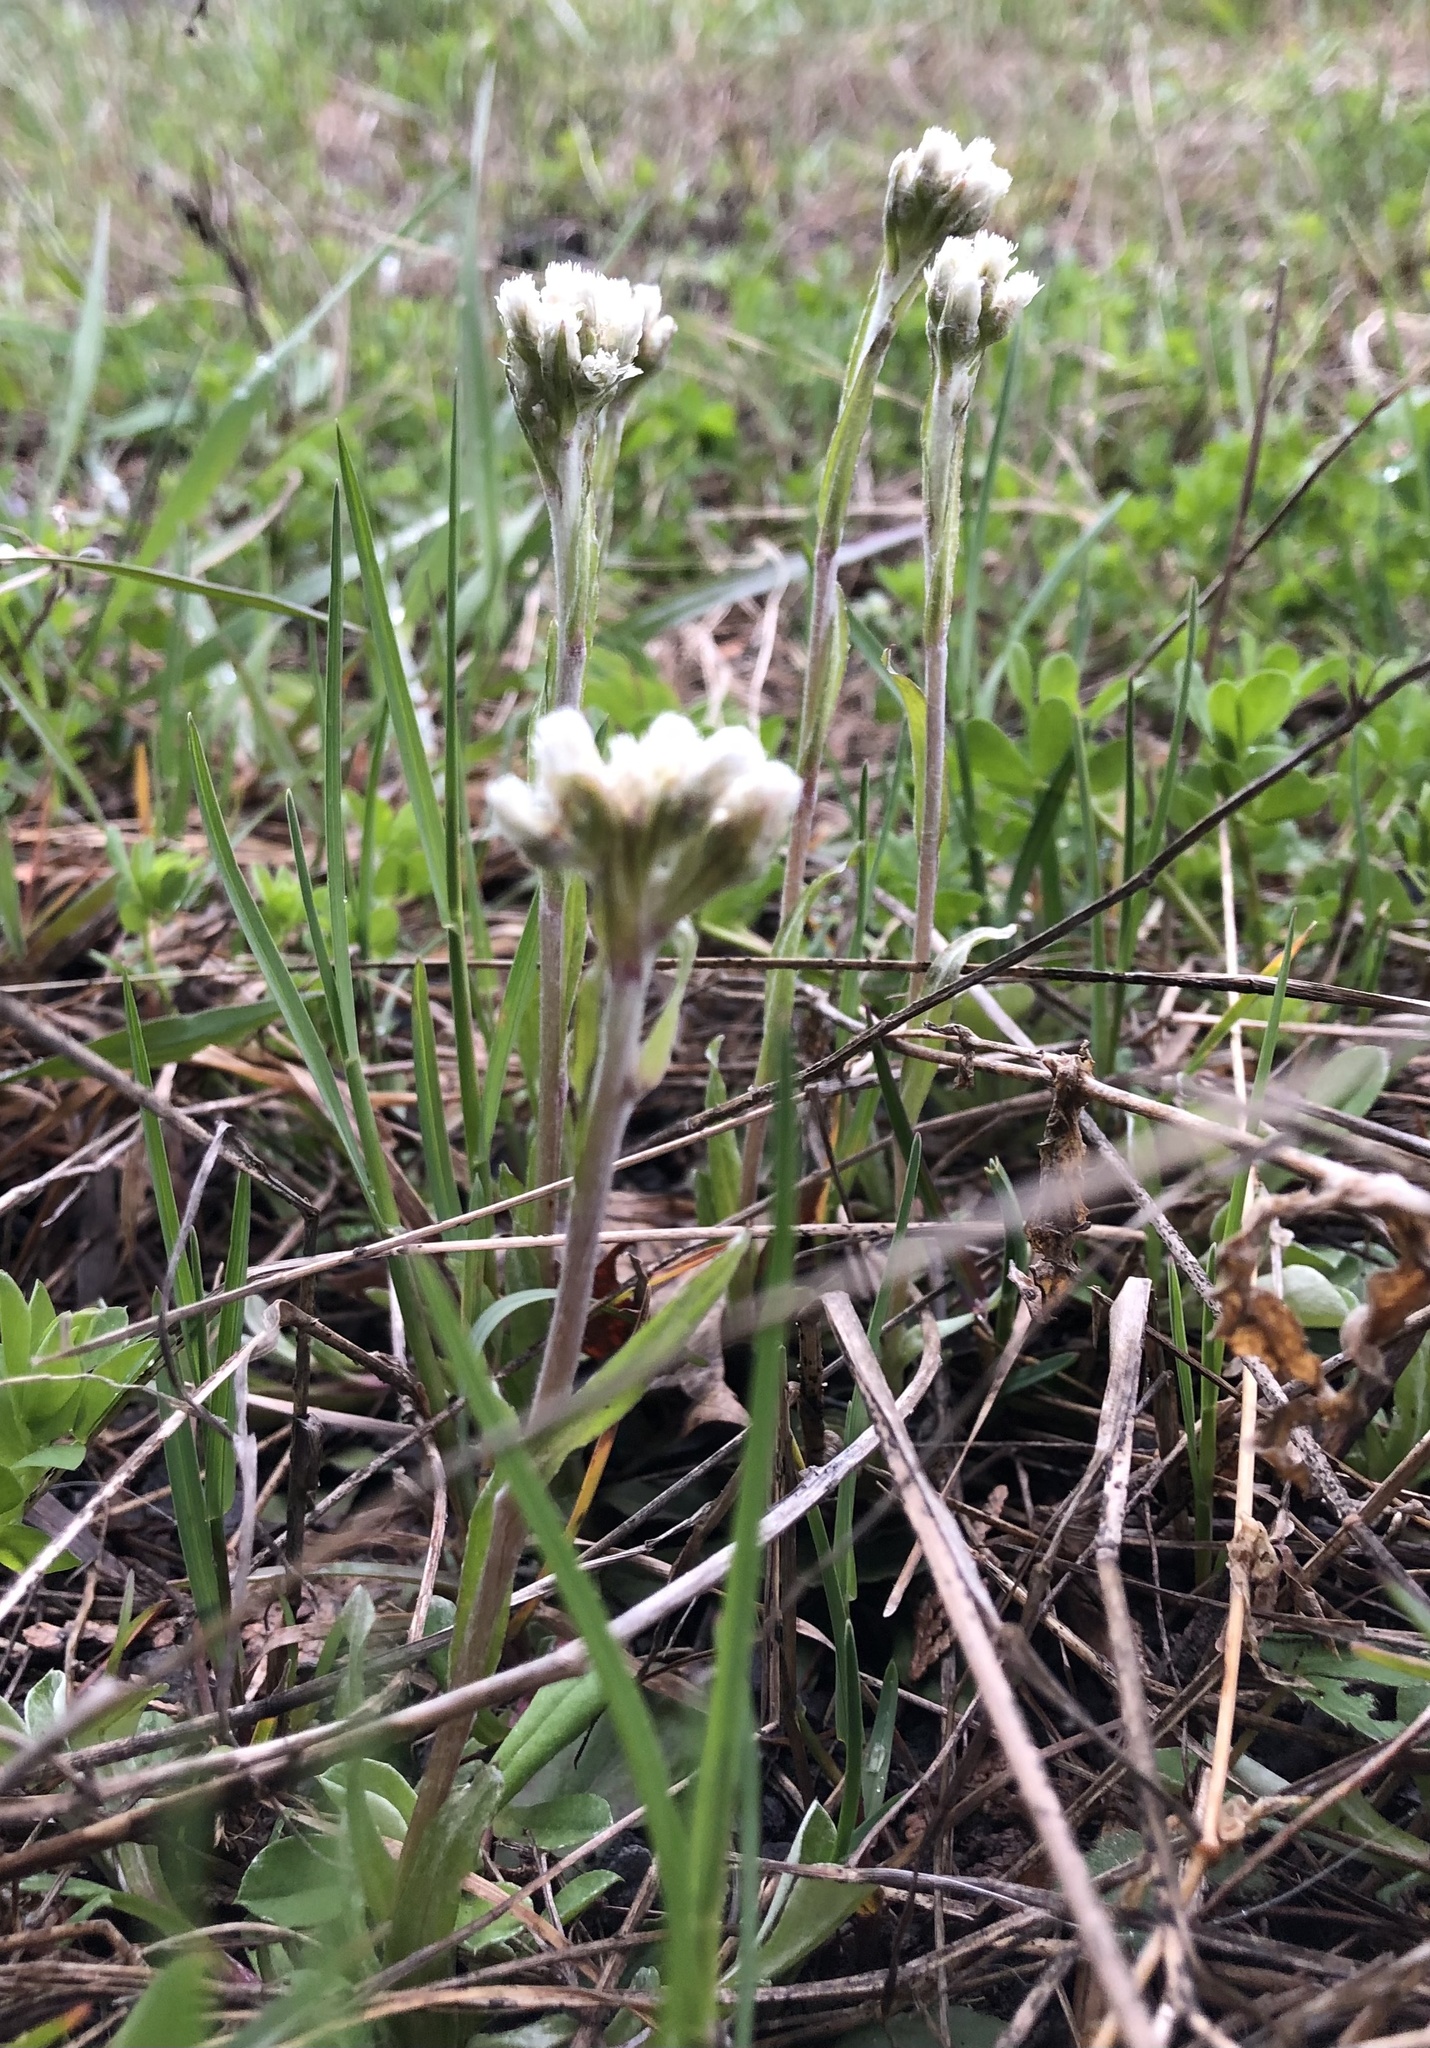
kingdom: Plantae
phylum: Tracheophyta
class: Magnoliopsida
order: Asterales
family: Asteraceae
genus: Antennaria
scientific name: Antennaria howellii
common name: Howell's pussytoes
